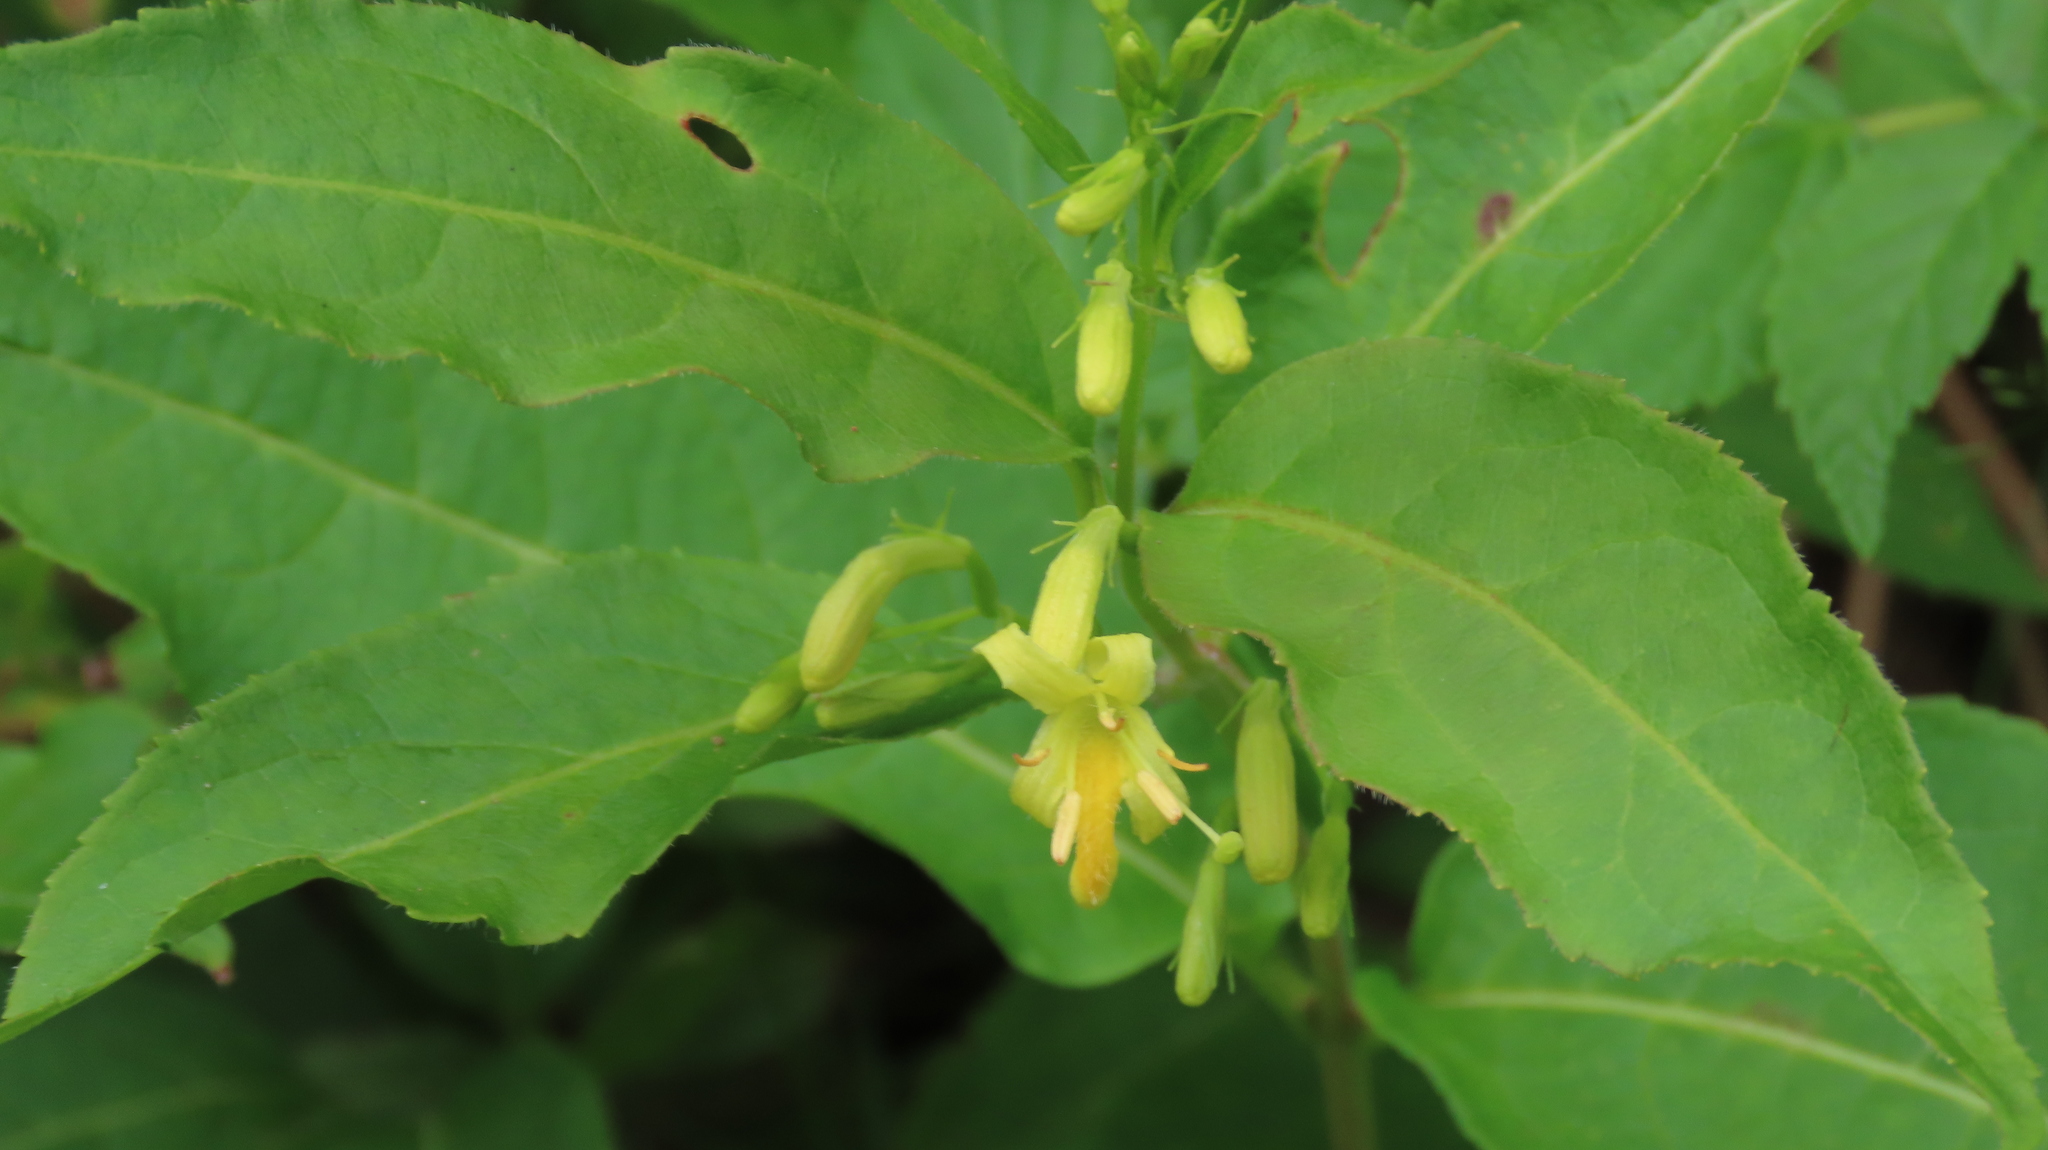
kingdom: Plantae
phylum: Tracheophyta
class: Magnoliopsida
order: Dipsacales
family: Caprifoliaceae
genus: Diervilla
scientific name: Diervilla lonicera
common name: Bush-honeysuckle
